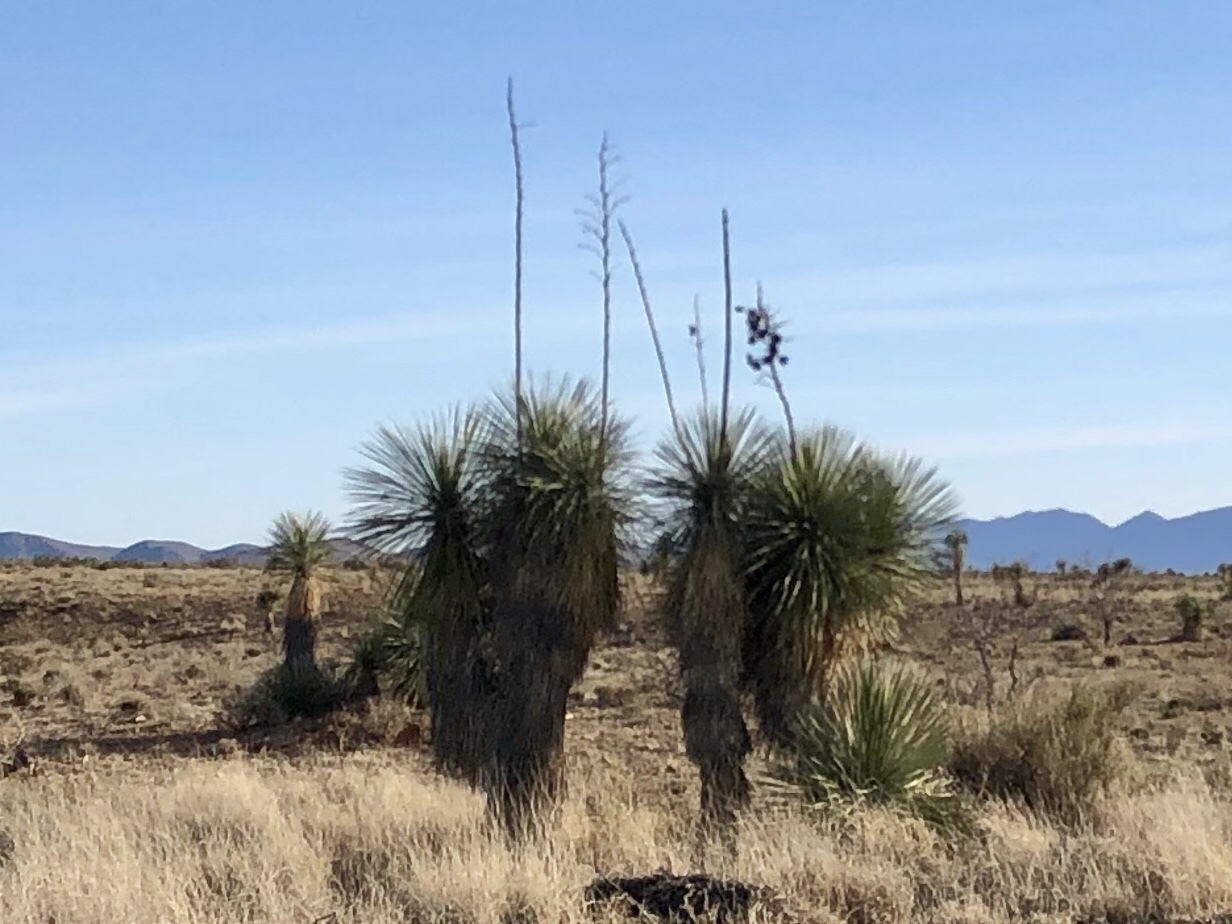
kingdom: Plantae
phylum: Tracheophyta
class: Liliopsida
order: Asparagales
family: Asparagaceae
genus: Yucca
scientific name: Yucca elata
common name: Palmella
